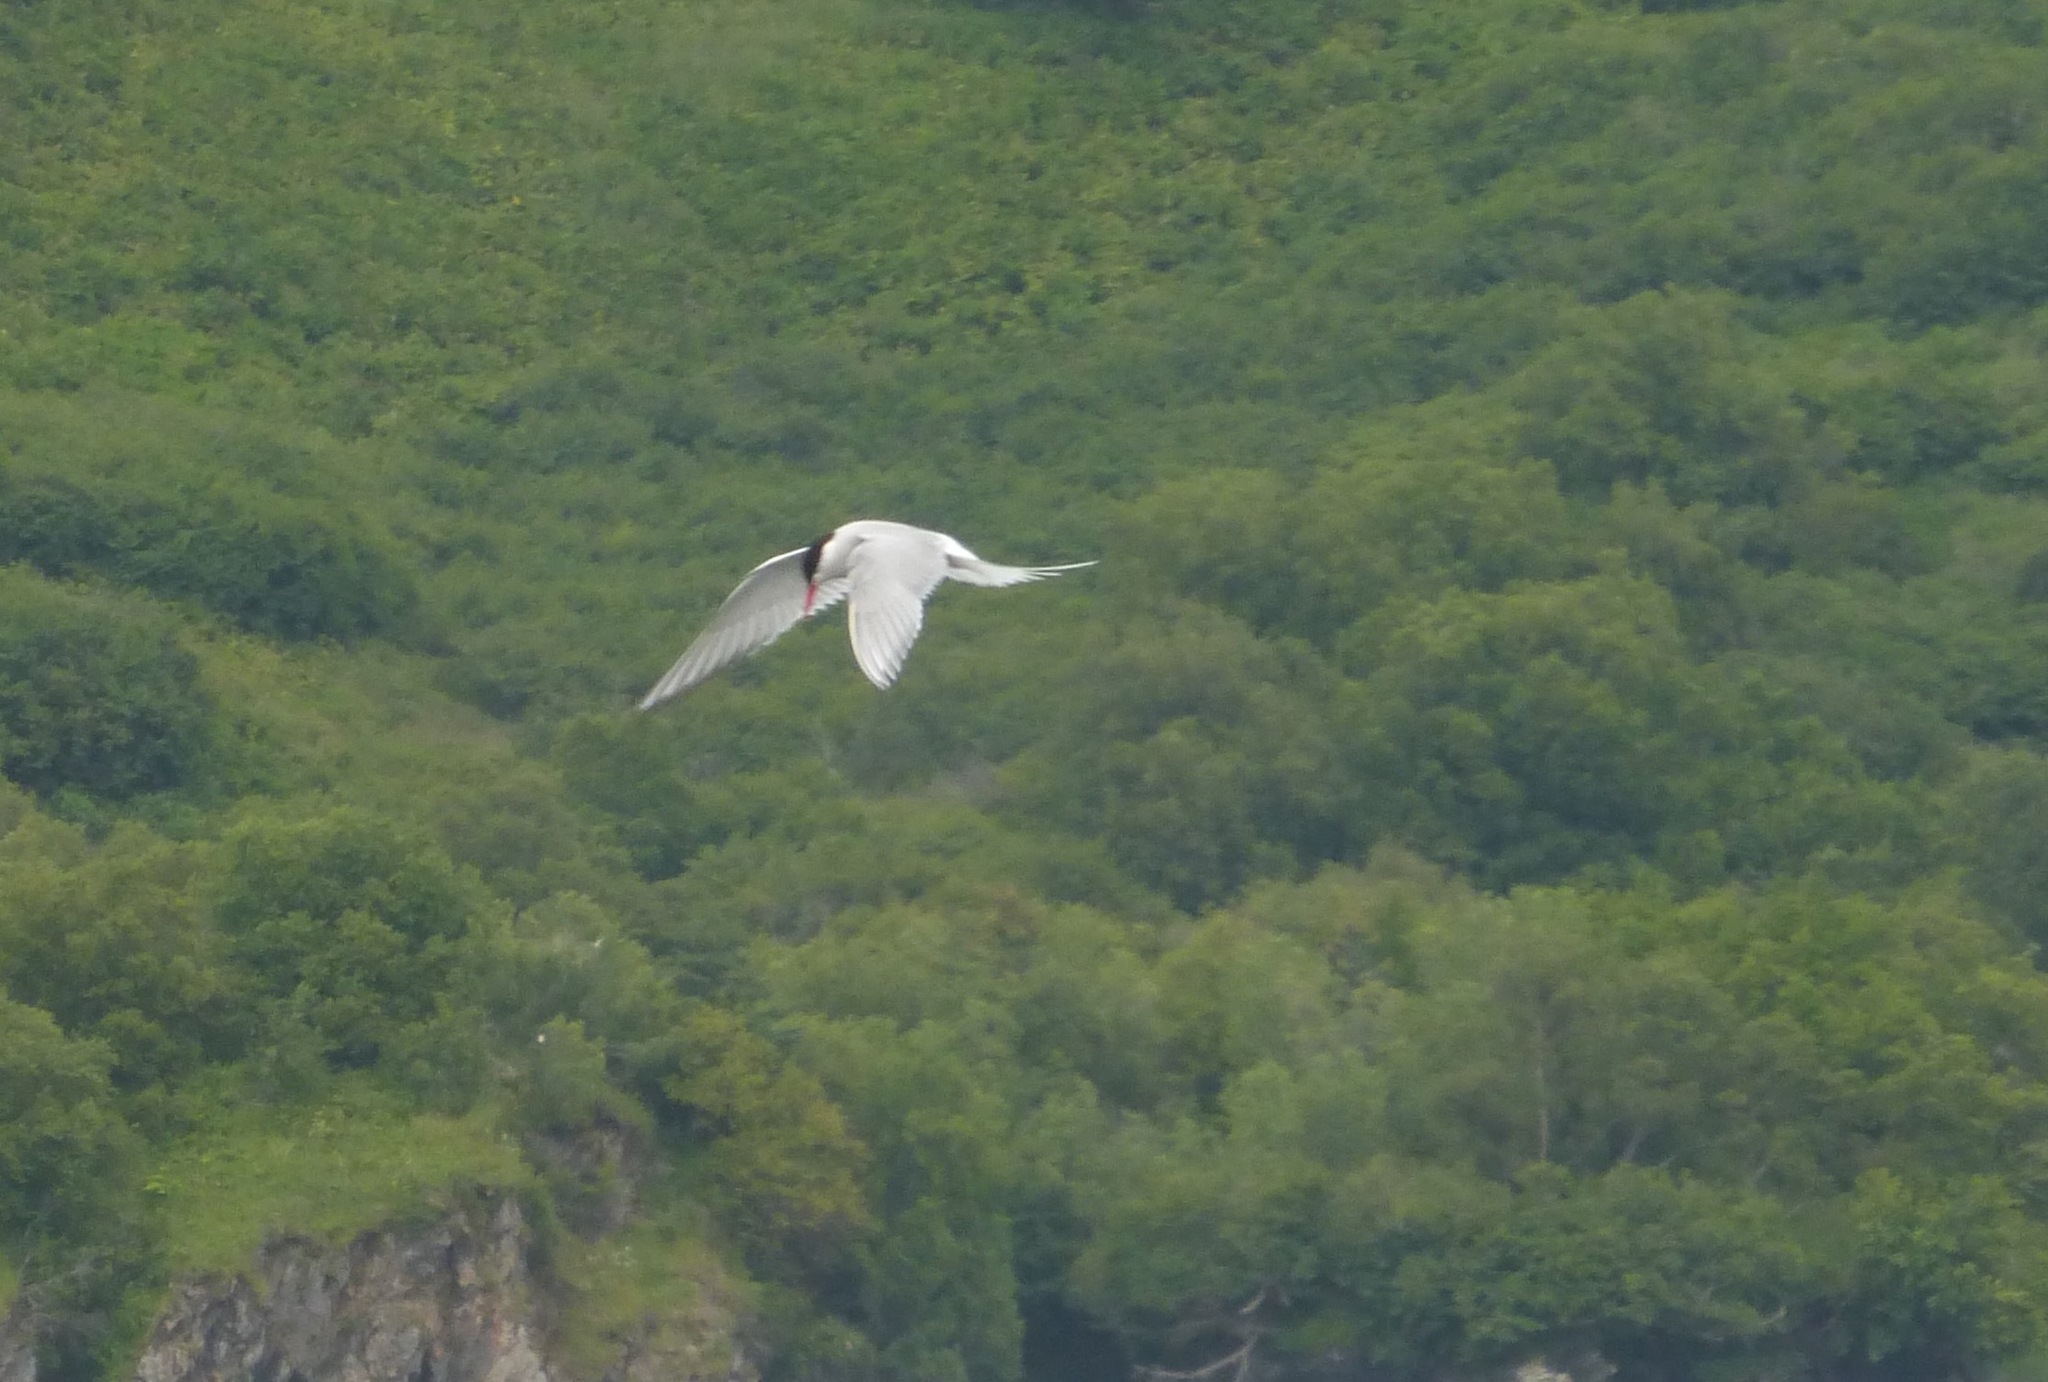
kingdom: Animalia
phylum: Chordata
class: Aves
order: Charadriiformes
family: Laridae
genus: Sterna
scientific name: Sterna paradisaea
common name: Arctic tern
